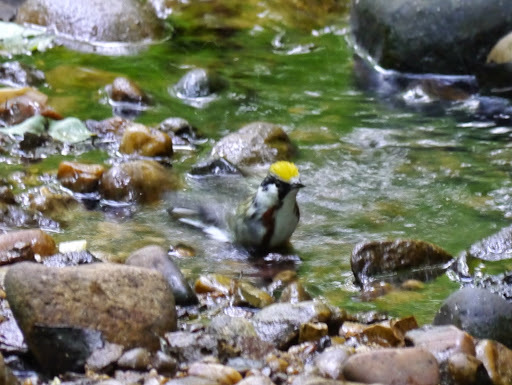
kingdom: Animalia
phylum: Chordata
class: Aves
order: Passeriformes
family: Parulidae
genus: Setophaga
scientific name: Setophaga pensylvanica
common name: Chestnut-sided warbler
